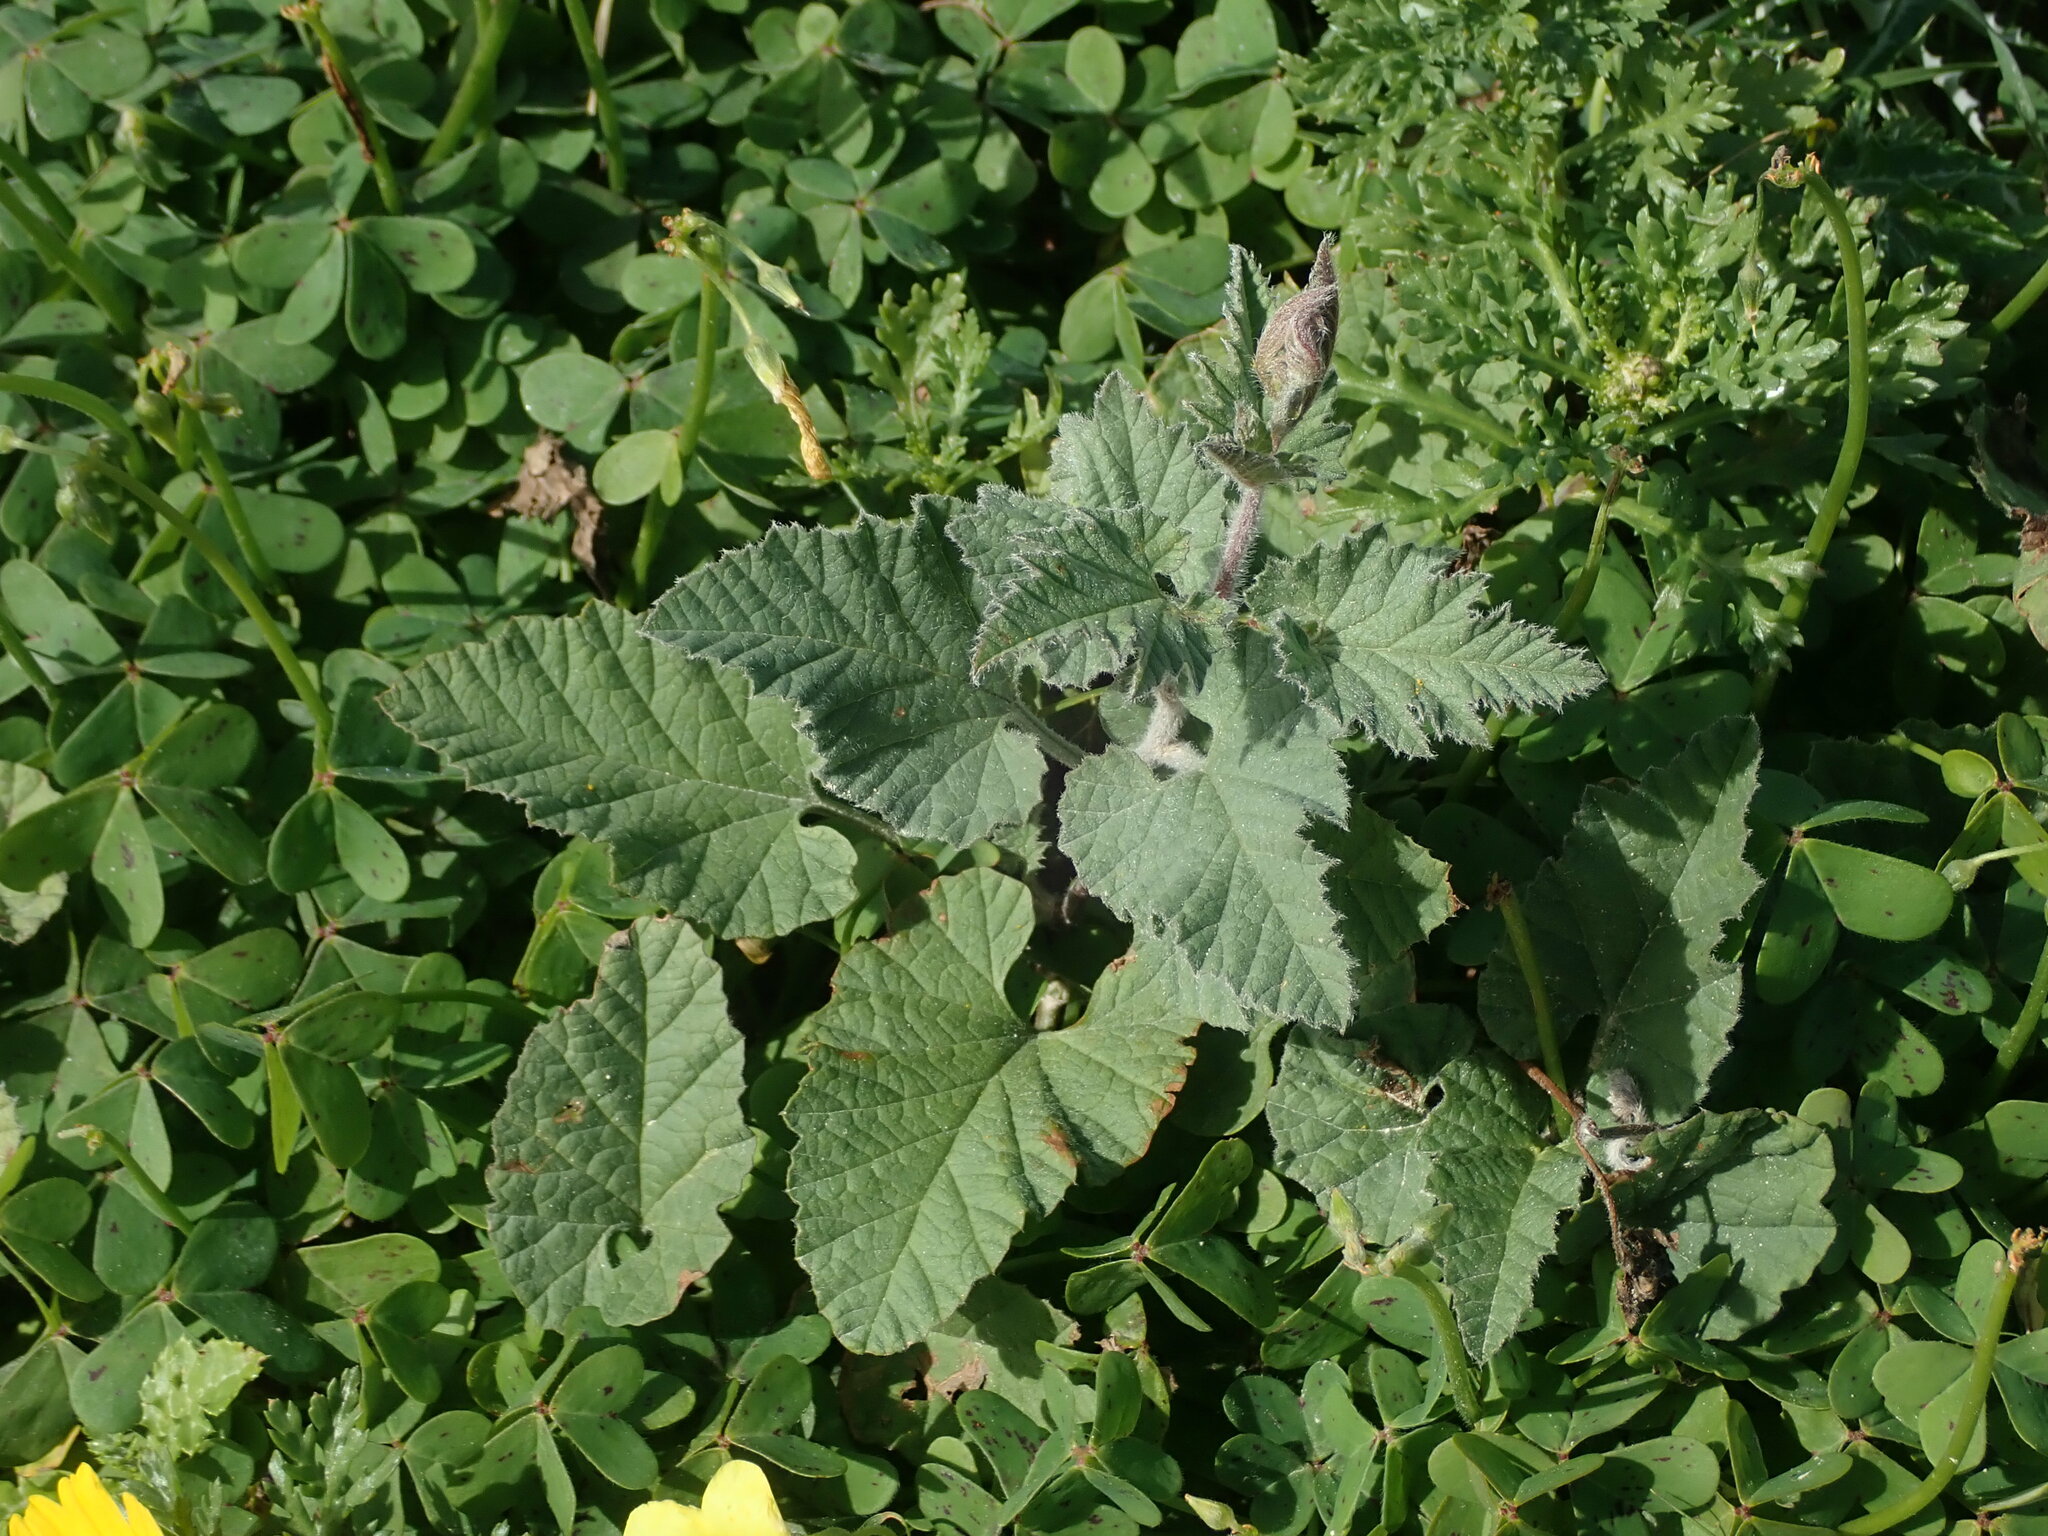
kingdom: Plantae
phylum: Tracheophyta
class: Magnoliopsida
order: Solanales
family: Convolvulaceae
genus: Convolvulus
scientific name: Convolvulus althaeoides
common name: Mallow bindweed
